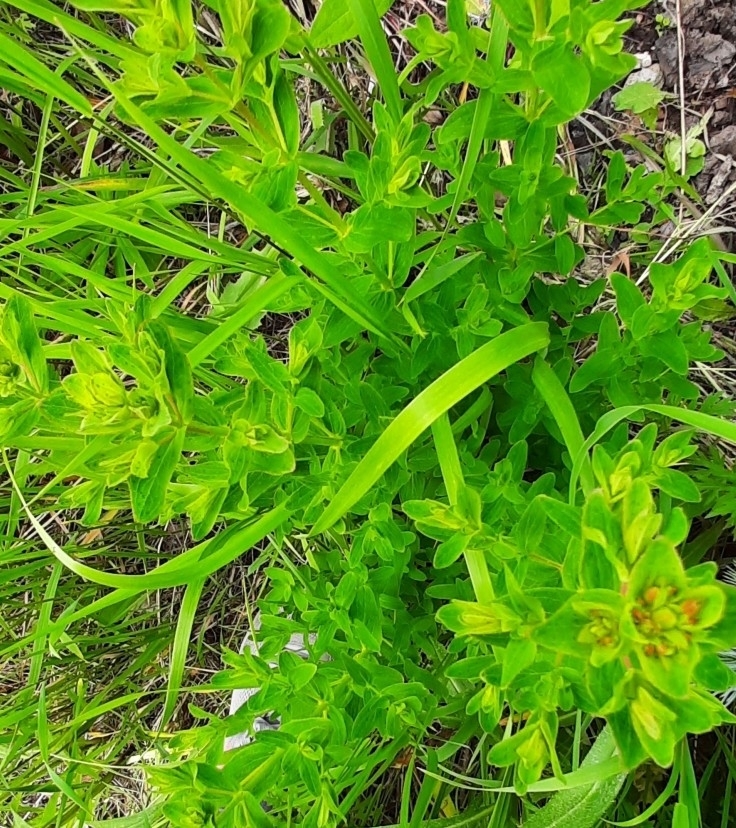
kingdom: Plantae
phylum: Tracheophyta
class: Magnoliopsida
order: Malpighiales
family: Hypericaceae
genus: Hypericum
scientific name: Hypericum perforatum
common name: Common st. johnswort
